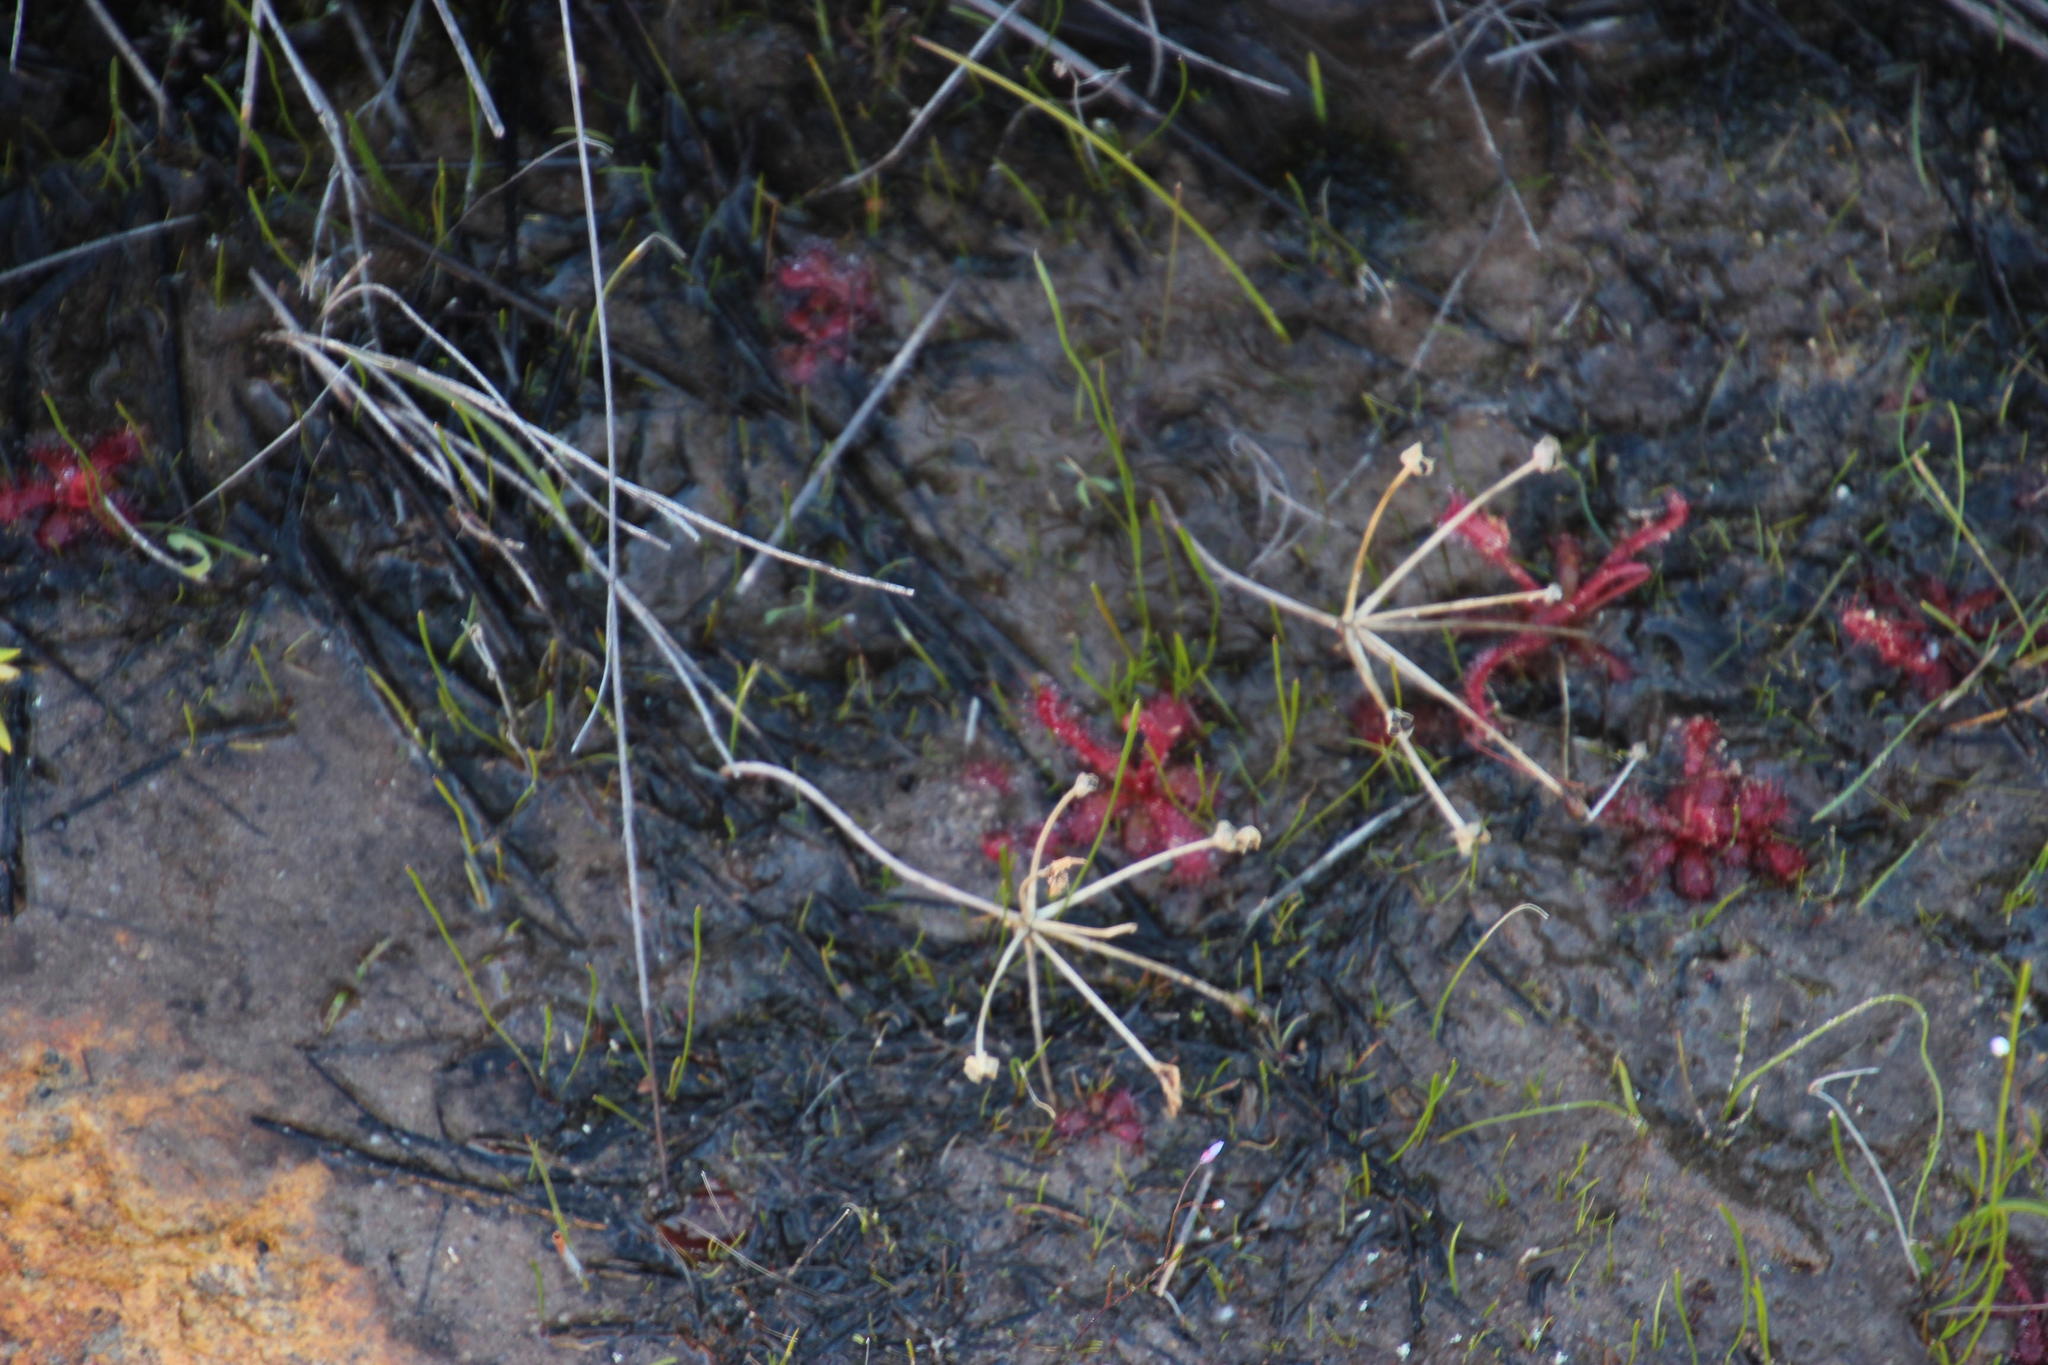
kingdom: Plantae
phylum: Tracheophyta
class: Liliopsida
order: Asparagales
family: Amaryllidaceae
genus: Hessea
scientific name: Hessea undosa
